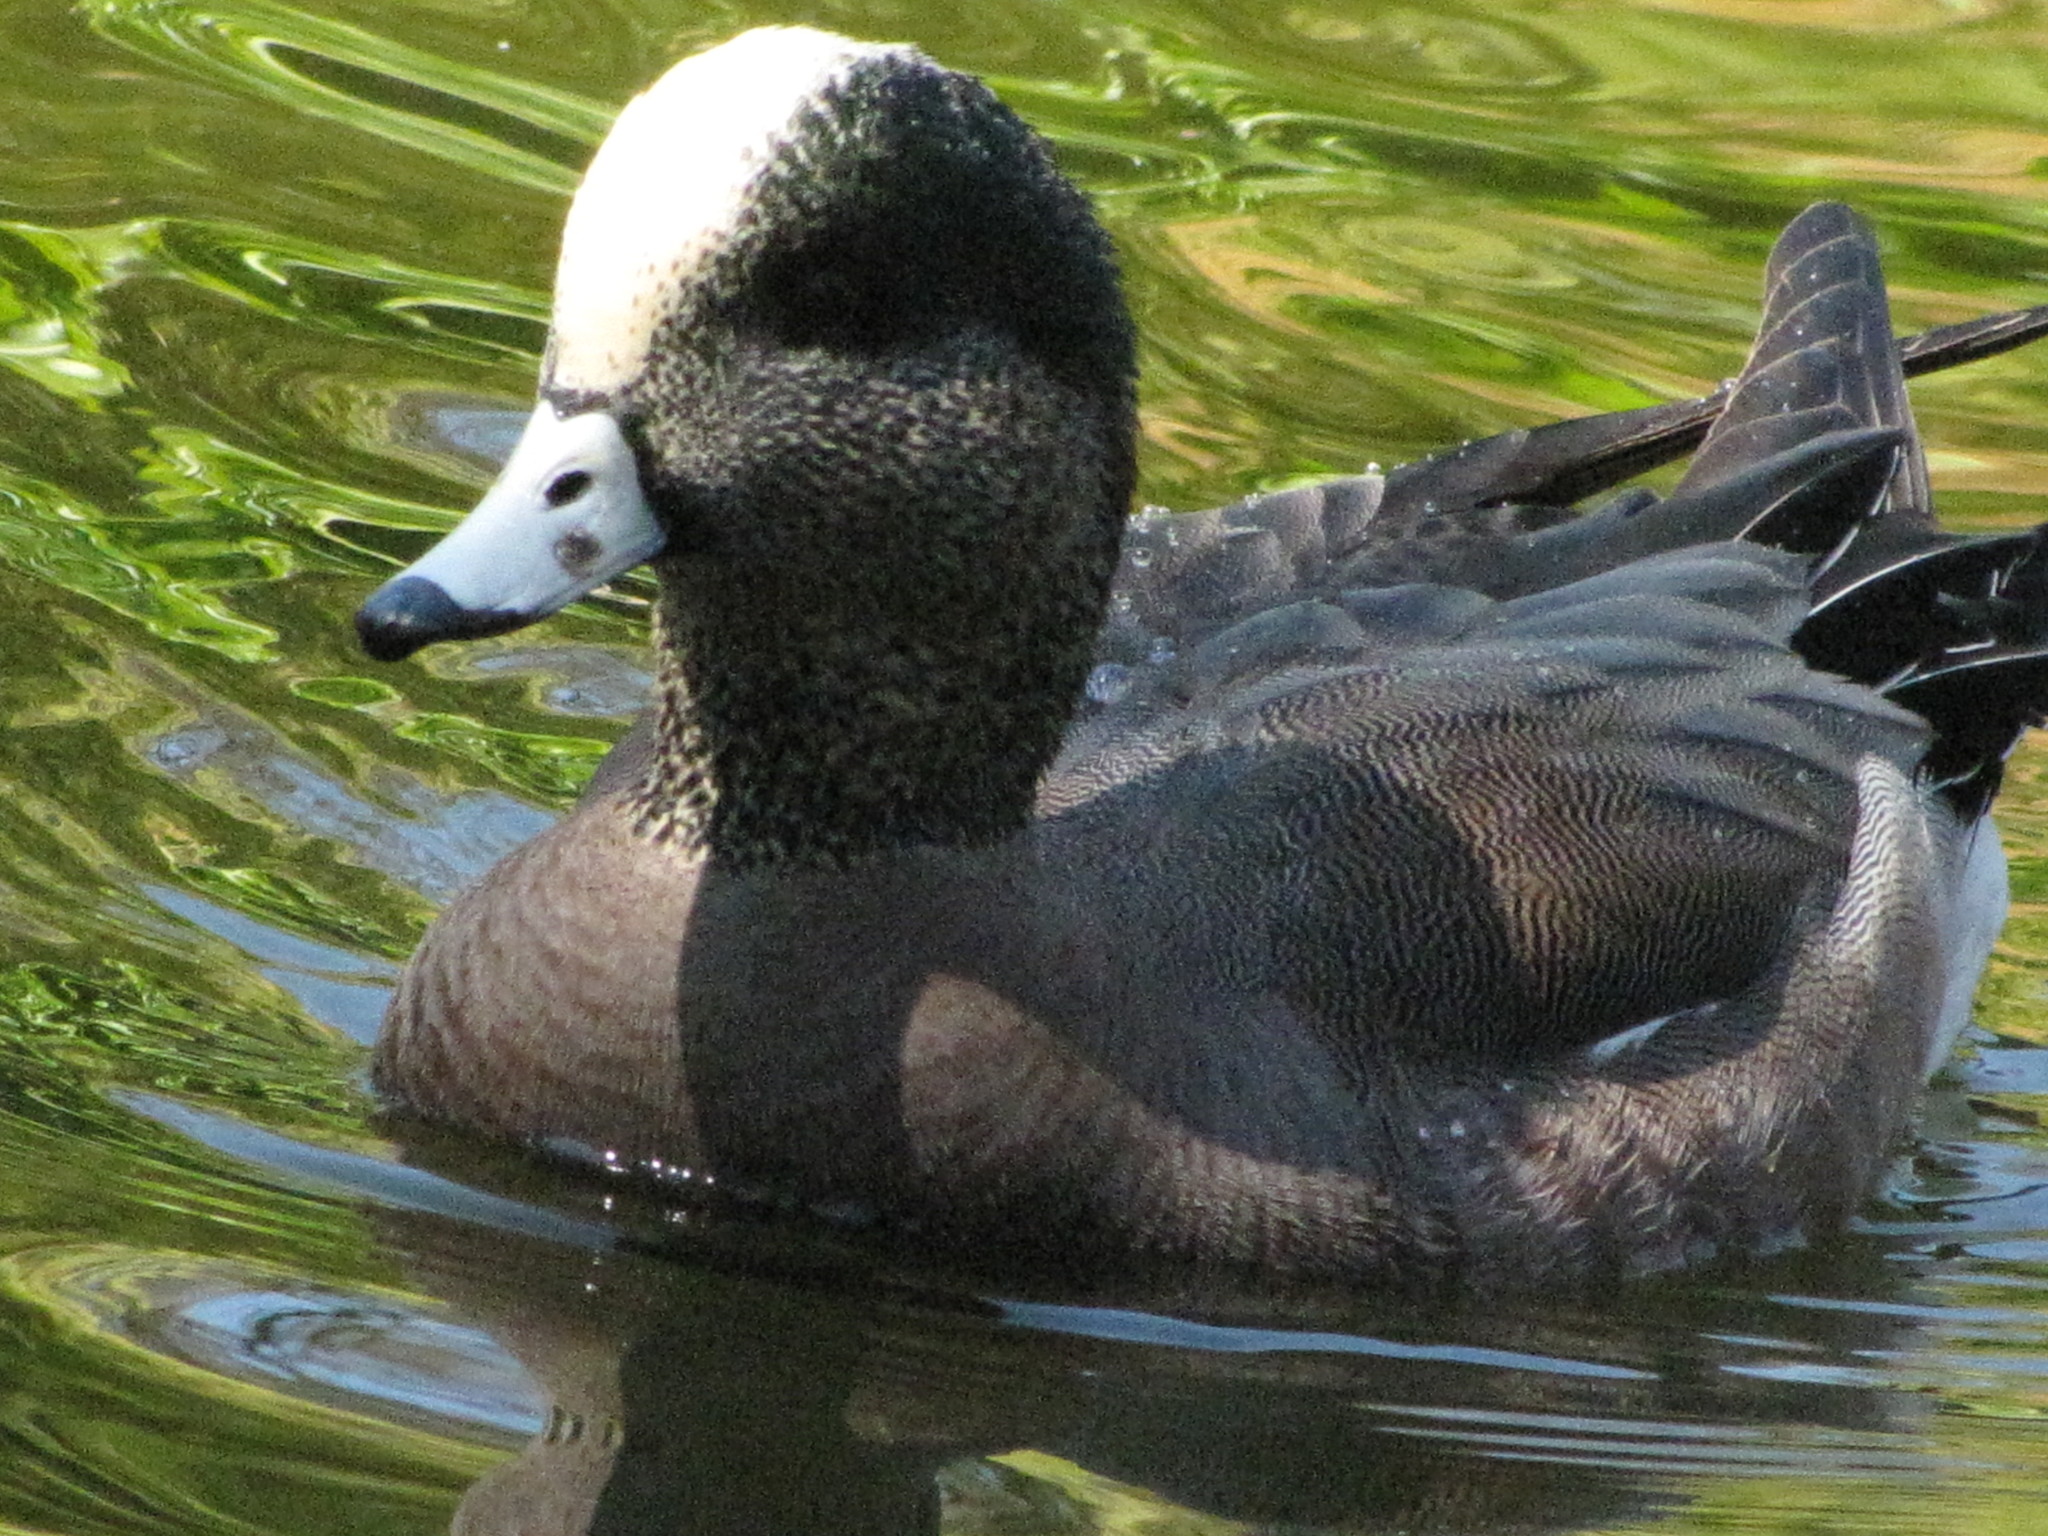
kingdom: Animalia
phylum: Chordata
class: Aves
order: Anseriformes
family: Anatidae
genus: Mareca
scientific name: Mareca americana
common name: American wigeon
